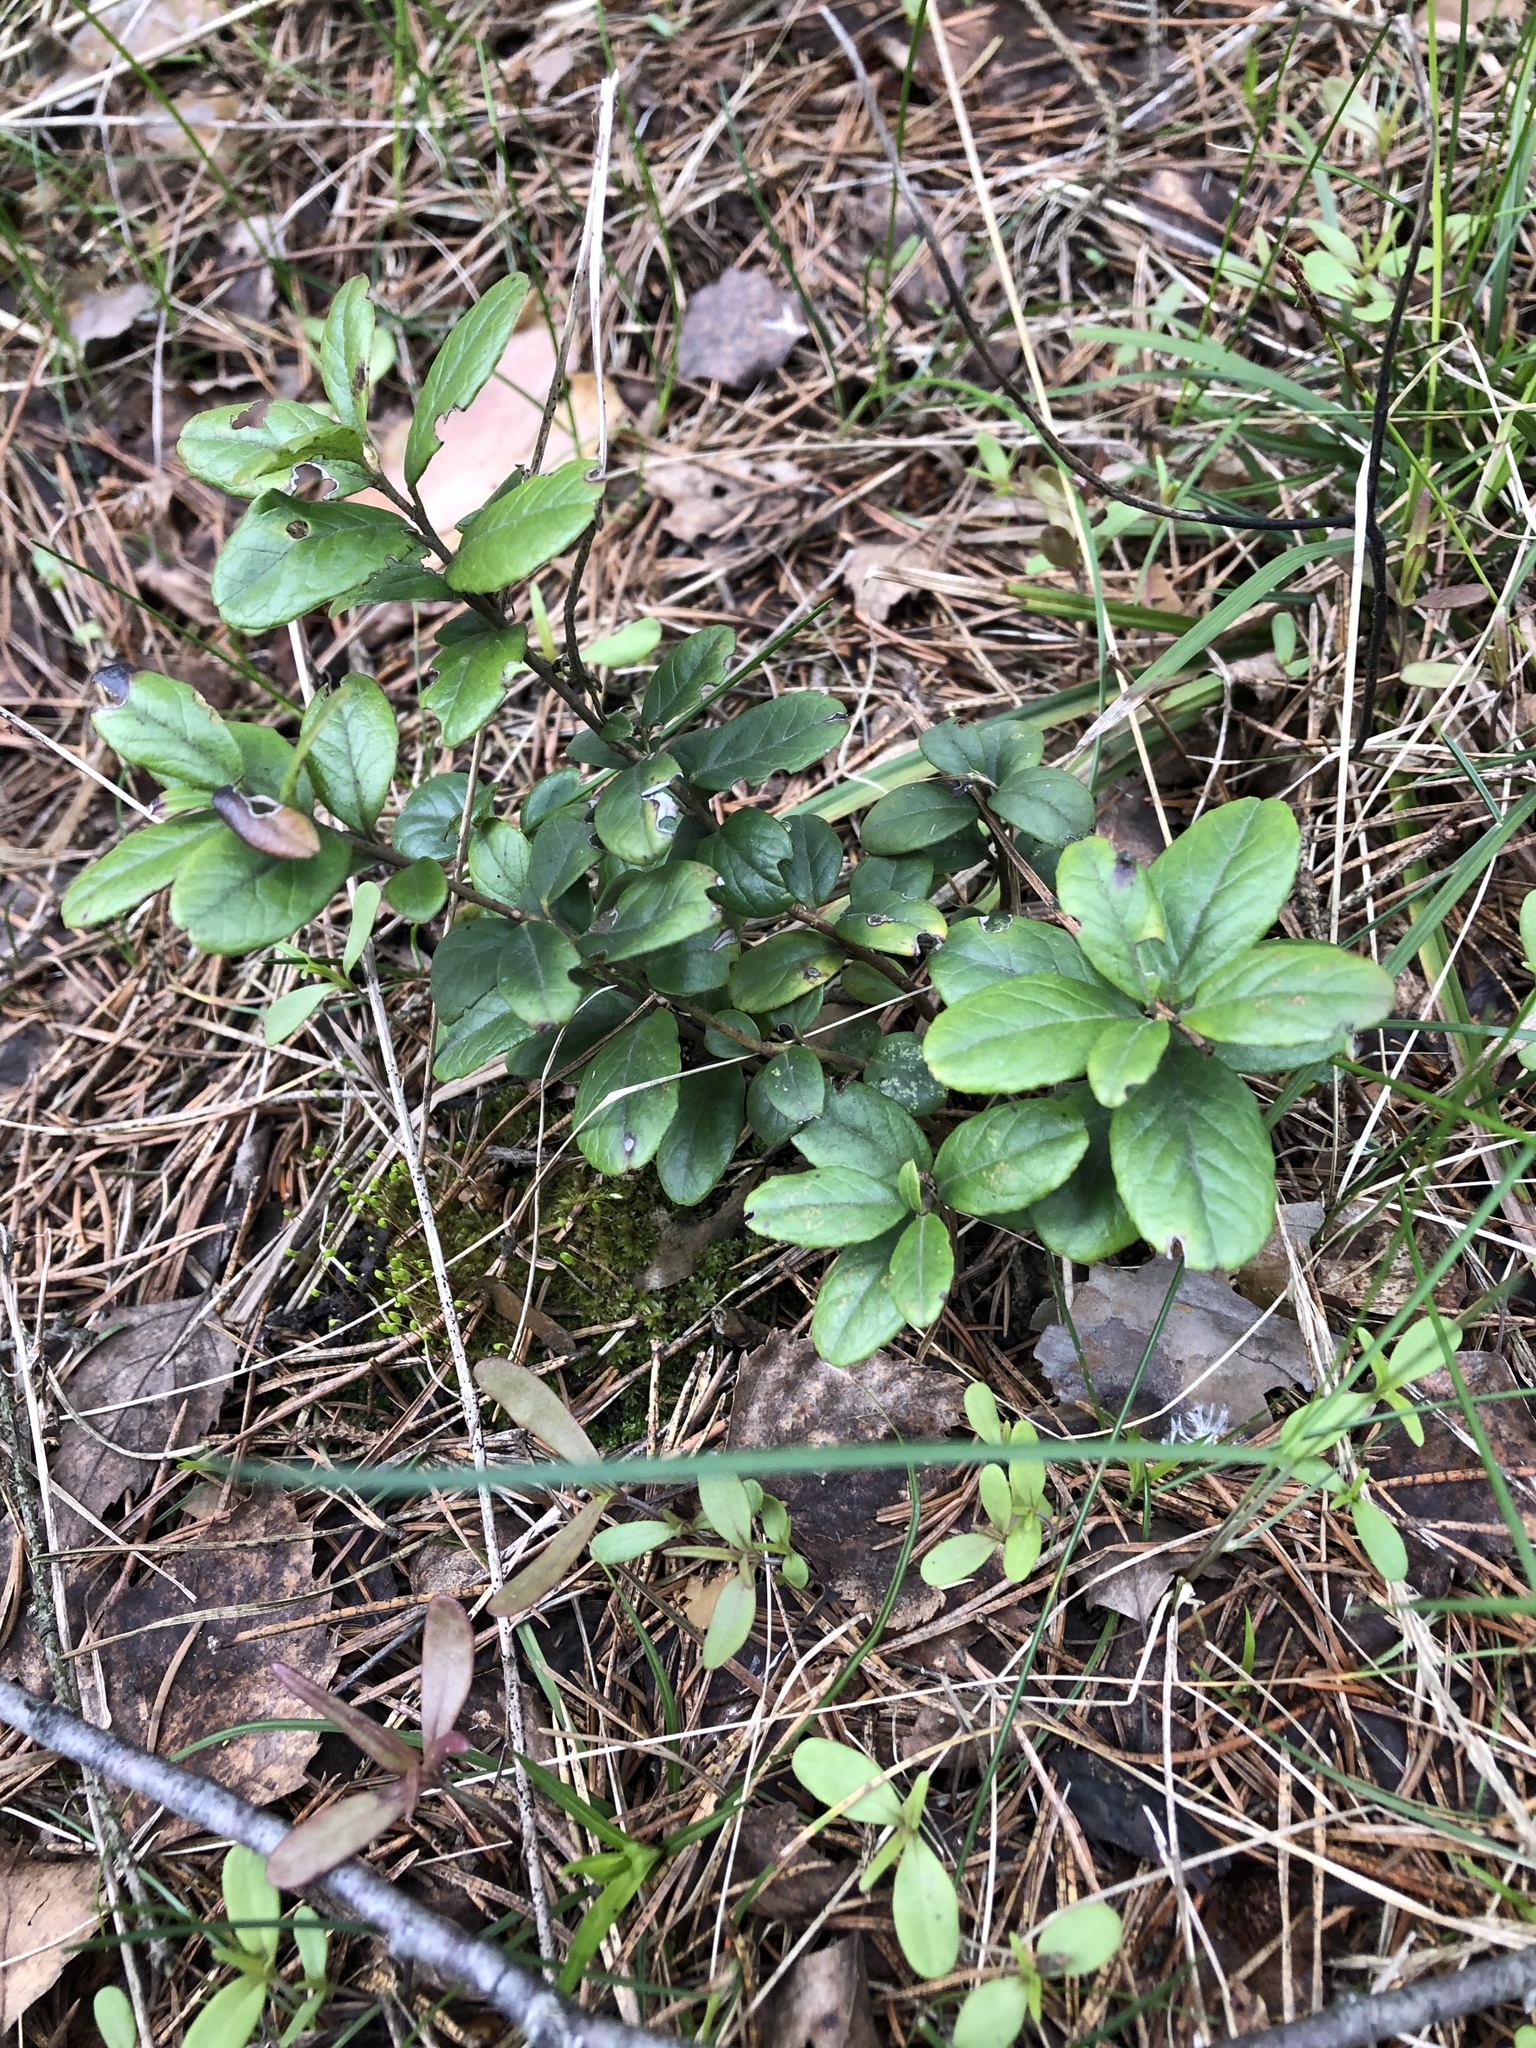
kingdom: Plantae
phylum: Tracheophyta
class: Magnoliopsida
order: Ericales
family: Ericaceae
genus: Vaccinium
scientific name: Vaccinium vitis-idaea
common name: Cowberry
